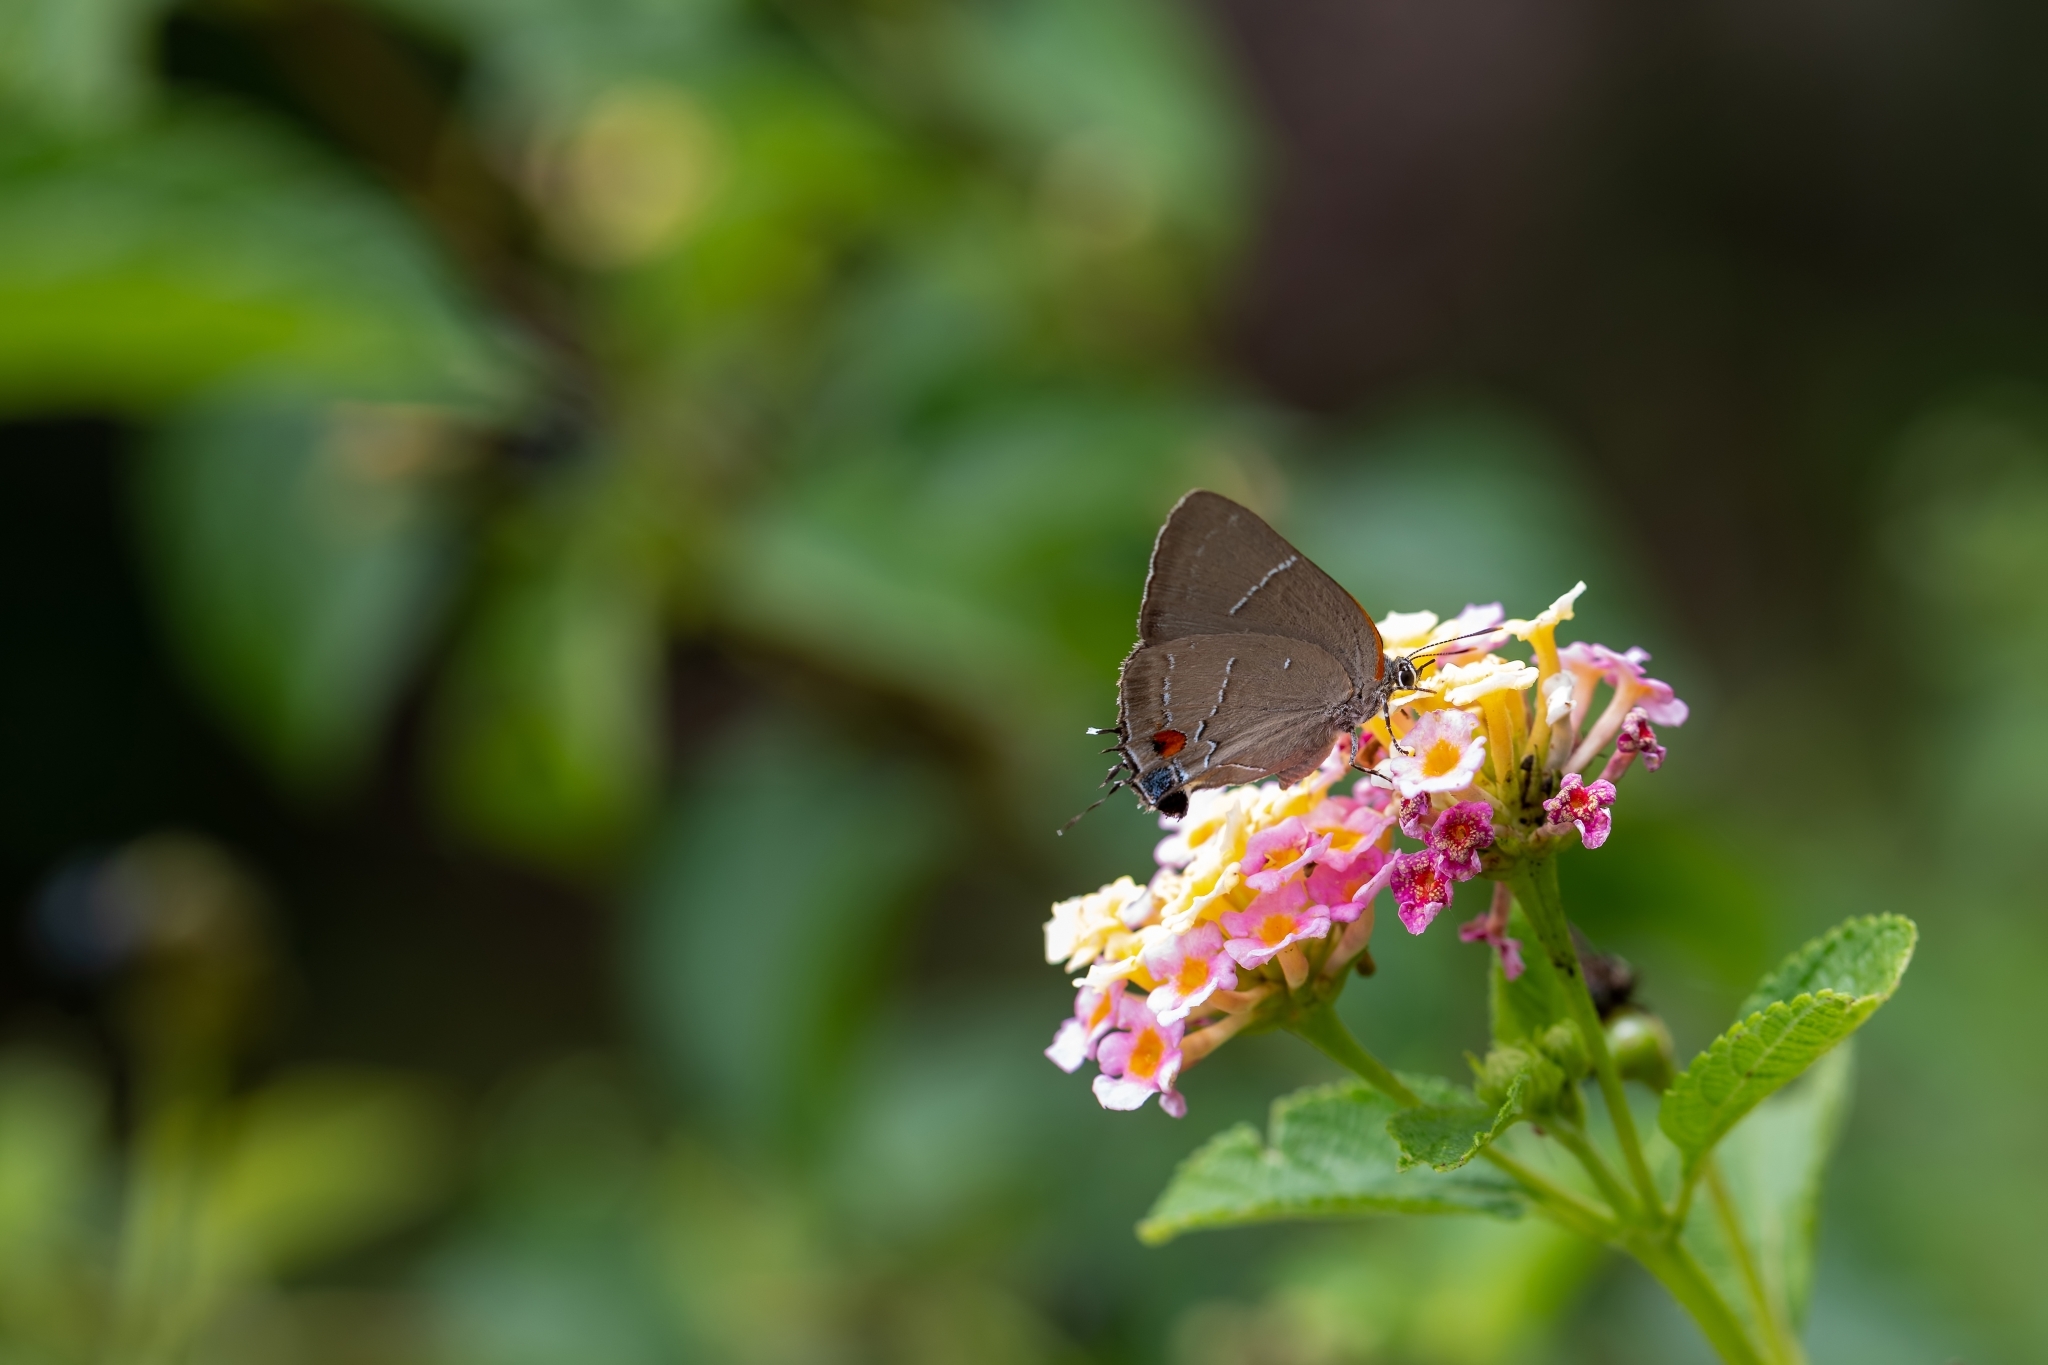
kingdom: Animalia
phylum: Arthropoda
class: Insecta
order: Lepidoptera
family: Lycaenidae
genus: Parrhasius
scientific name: Parrhasius m-album
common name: White m hairstreak
